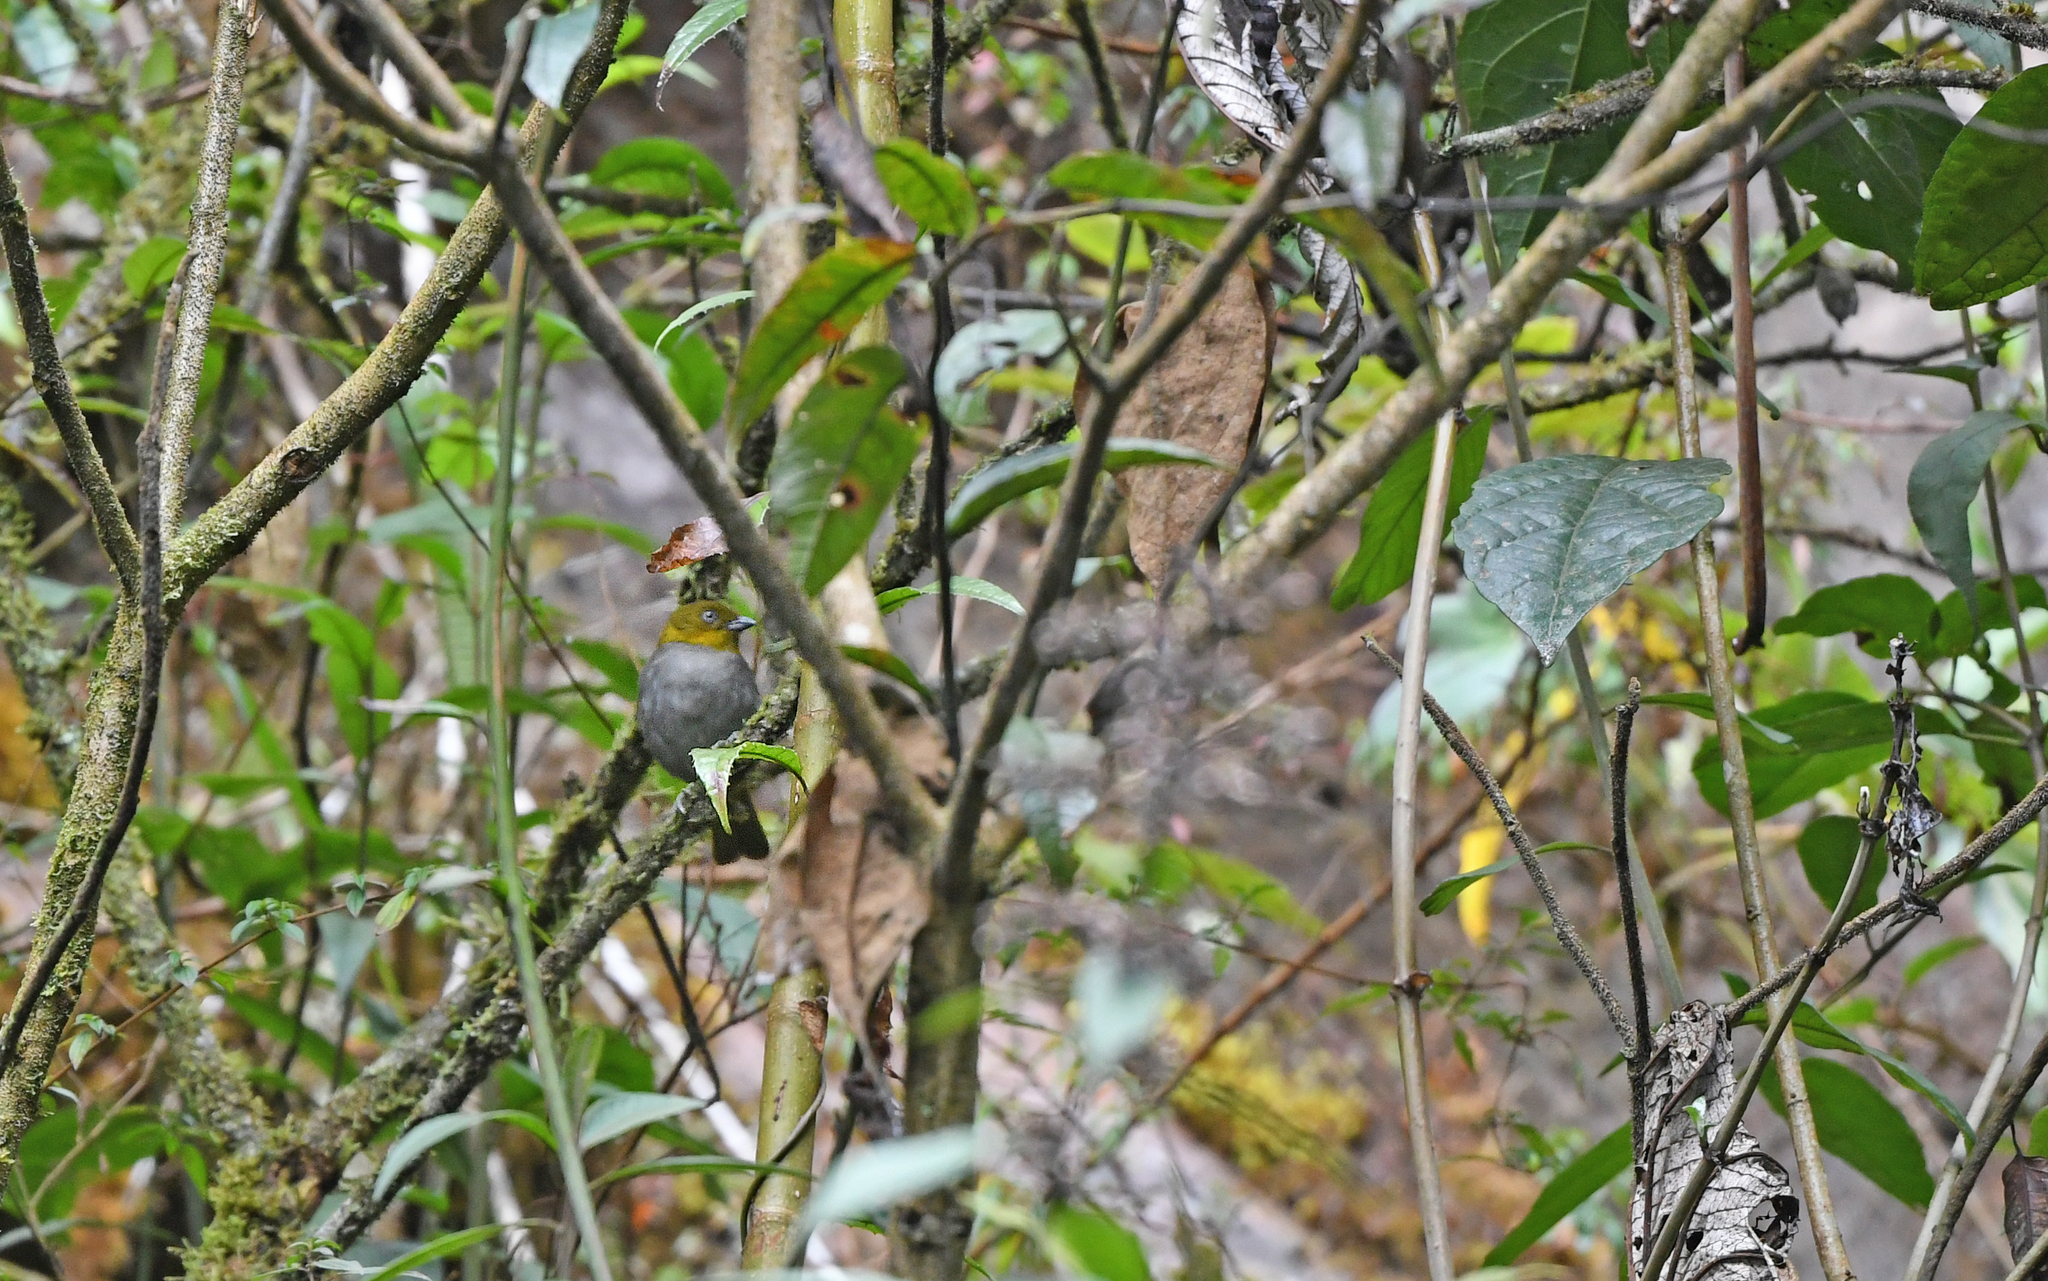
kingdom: Animalia
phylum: Chordata
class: Aves
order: Passeriformes
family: Passerellidae
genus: Chlorospingus
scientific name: Chlorospingus parvirostris
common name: Yellow-whiskered bush tanager
